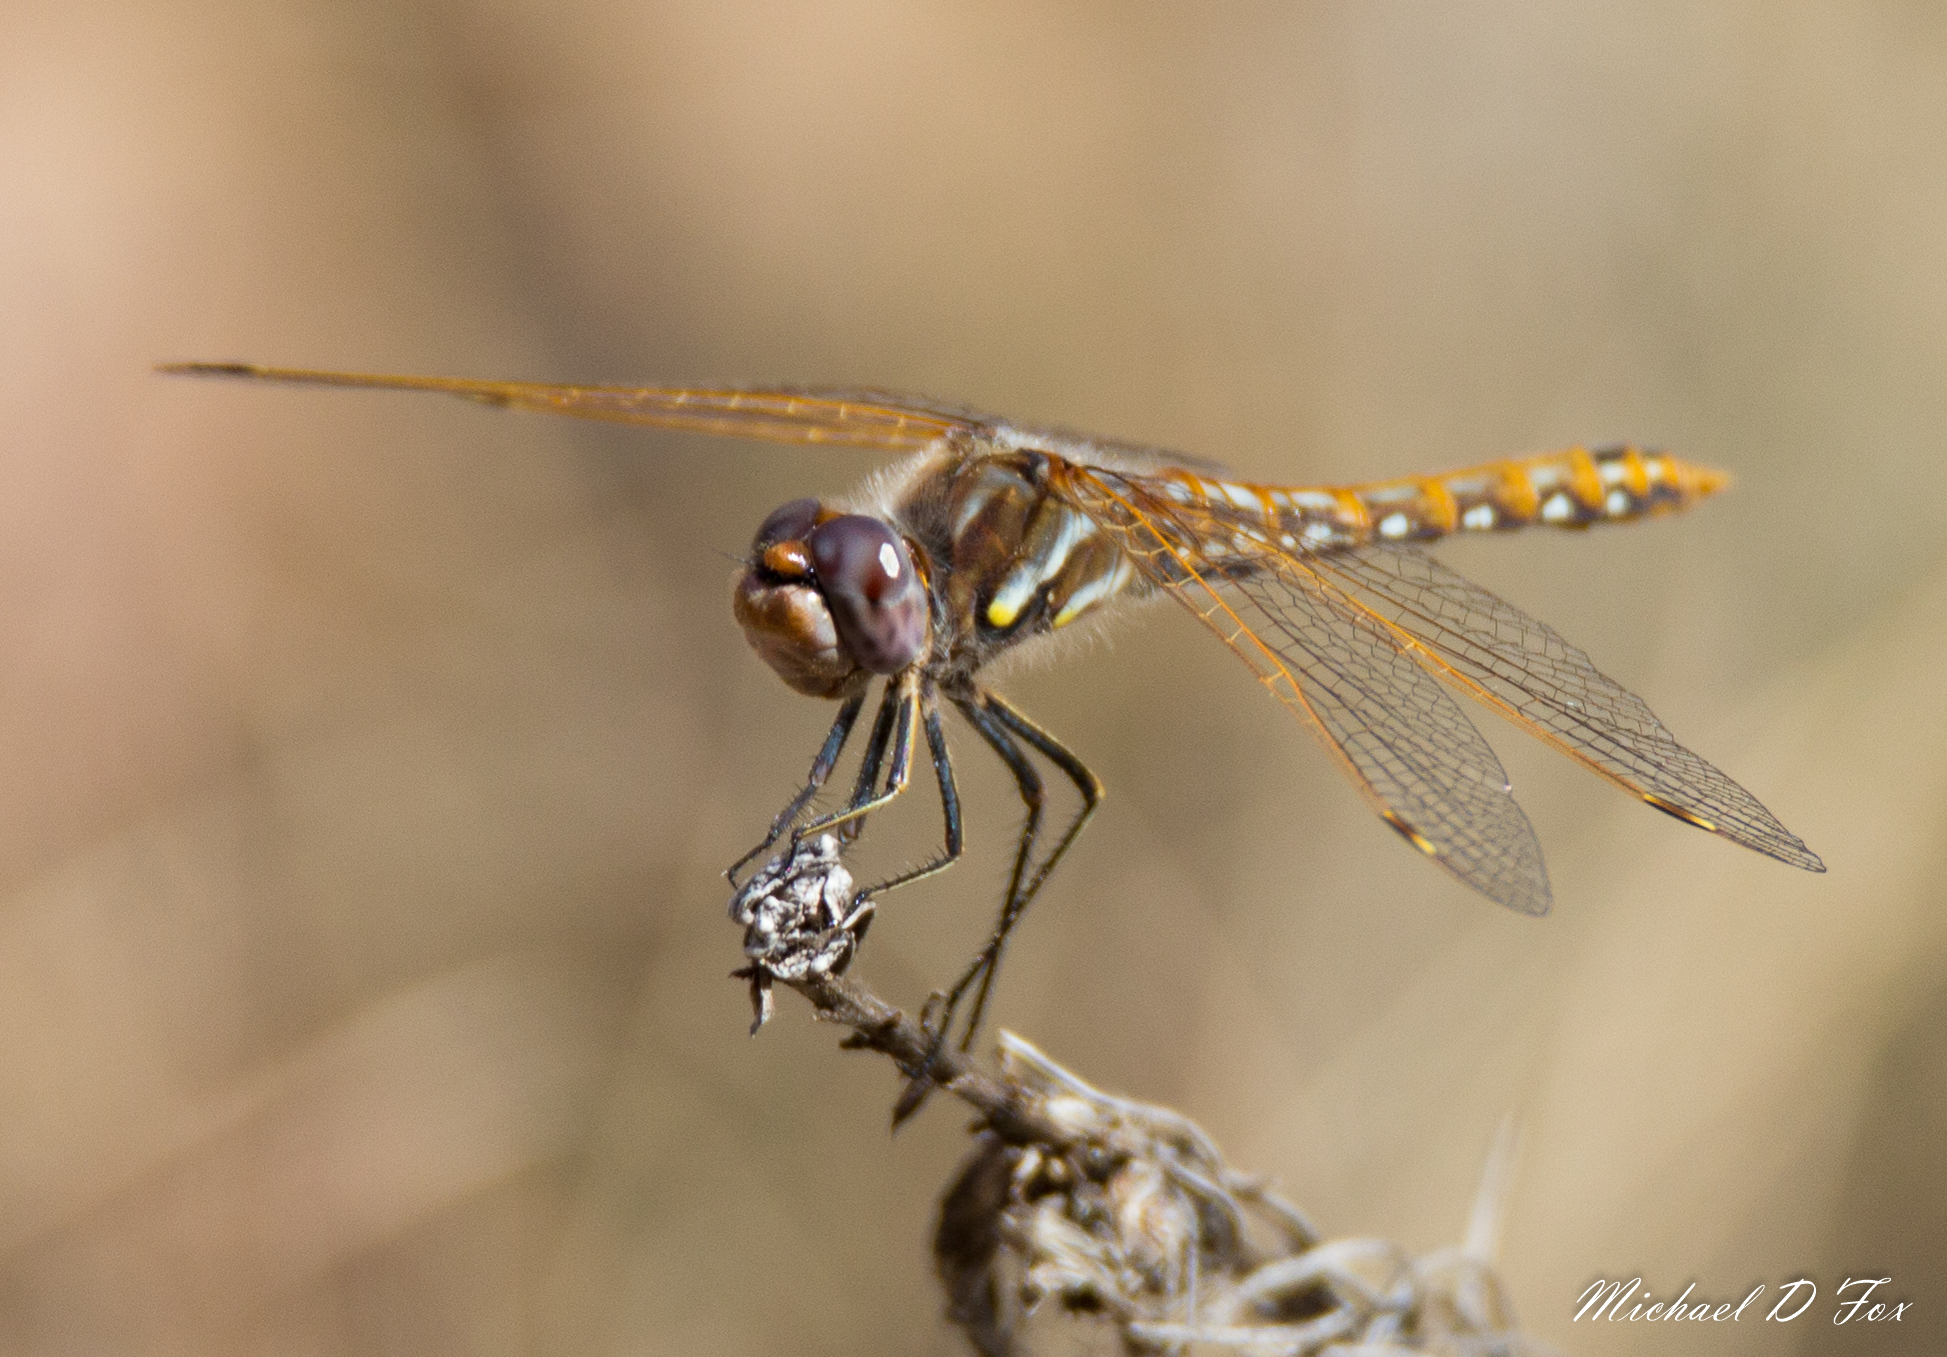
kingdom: Animalia
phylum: Arthropoda
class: Insecta
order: Odonata
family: Libellulidae
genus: Sympetrum
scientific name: Sympetrum corruptum
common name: Variegated meadowhawk
